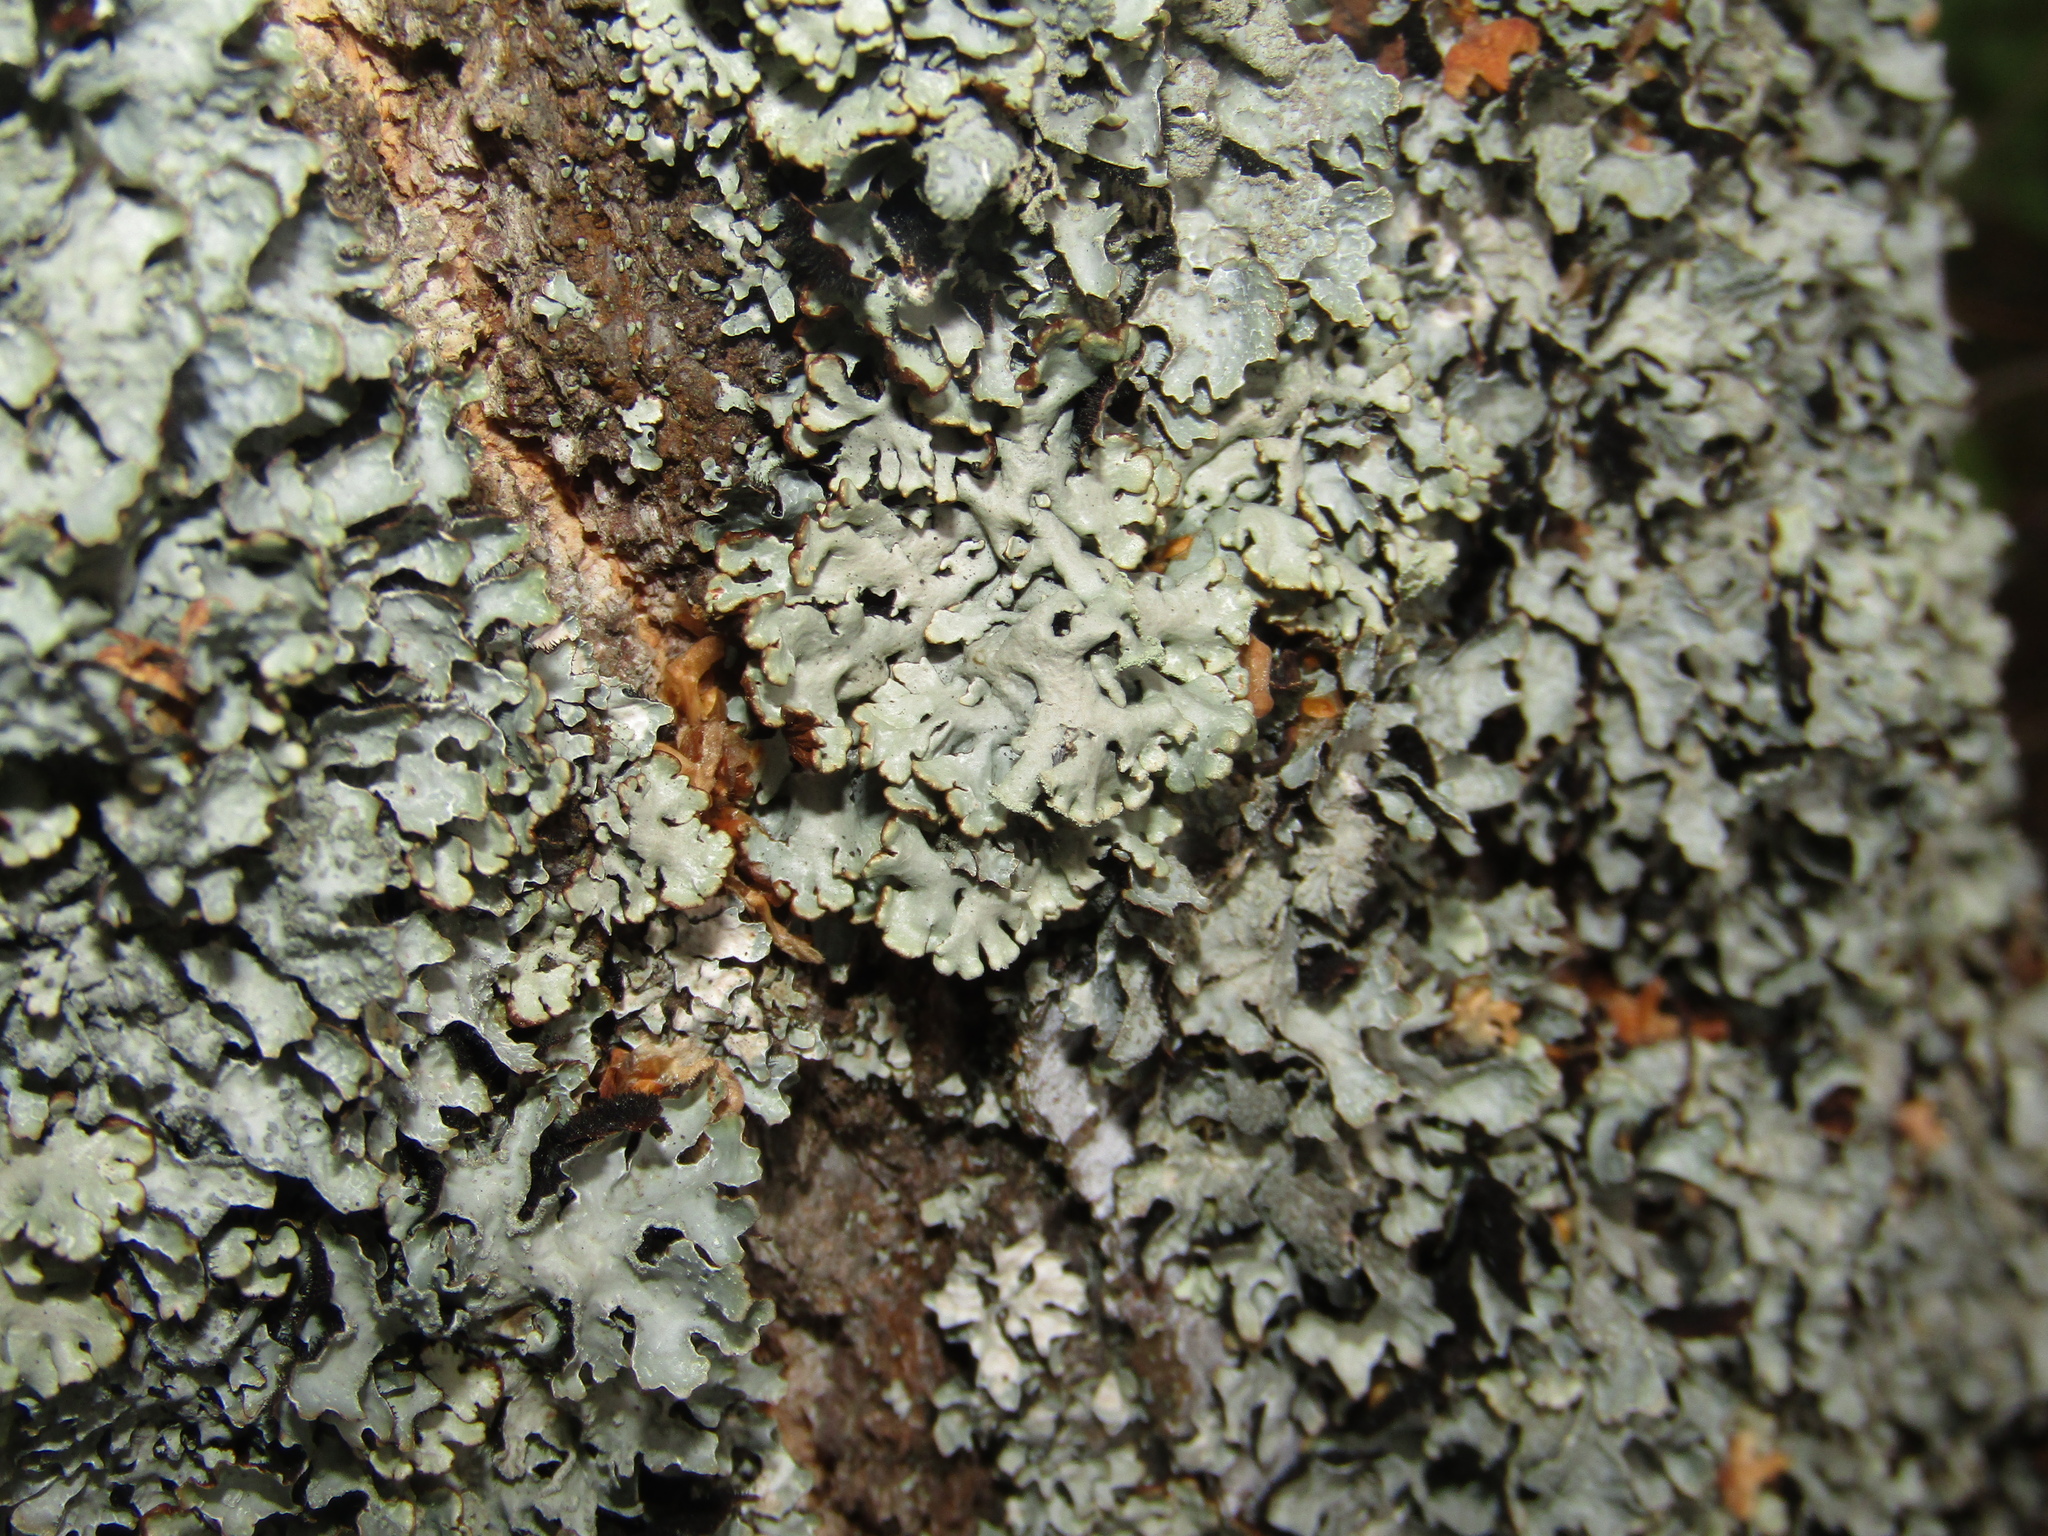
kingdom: Fungi
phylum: Ascomycota
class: Lecanoromycetes
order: Lecanorales
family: Parmeliaceae
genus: Hypogymnia
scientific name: Hypogymnia physodes
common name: Dark crottle
